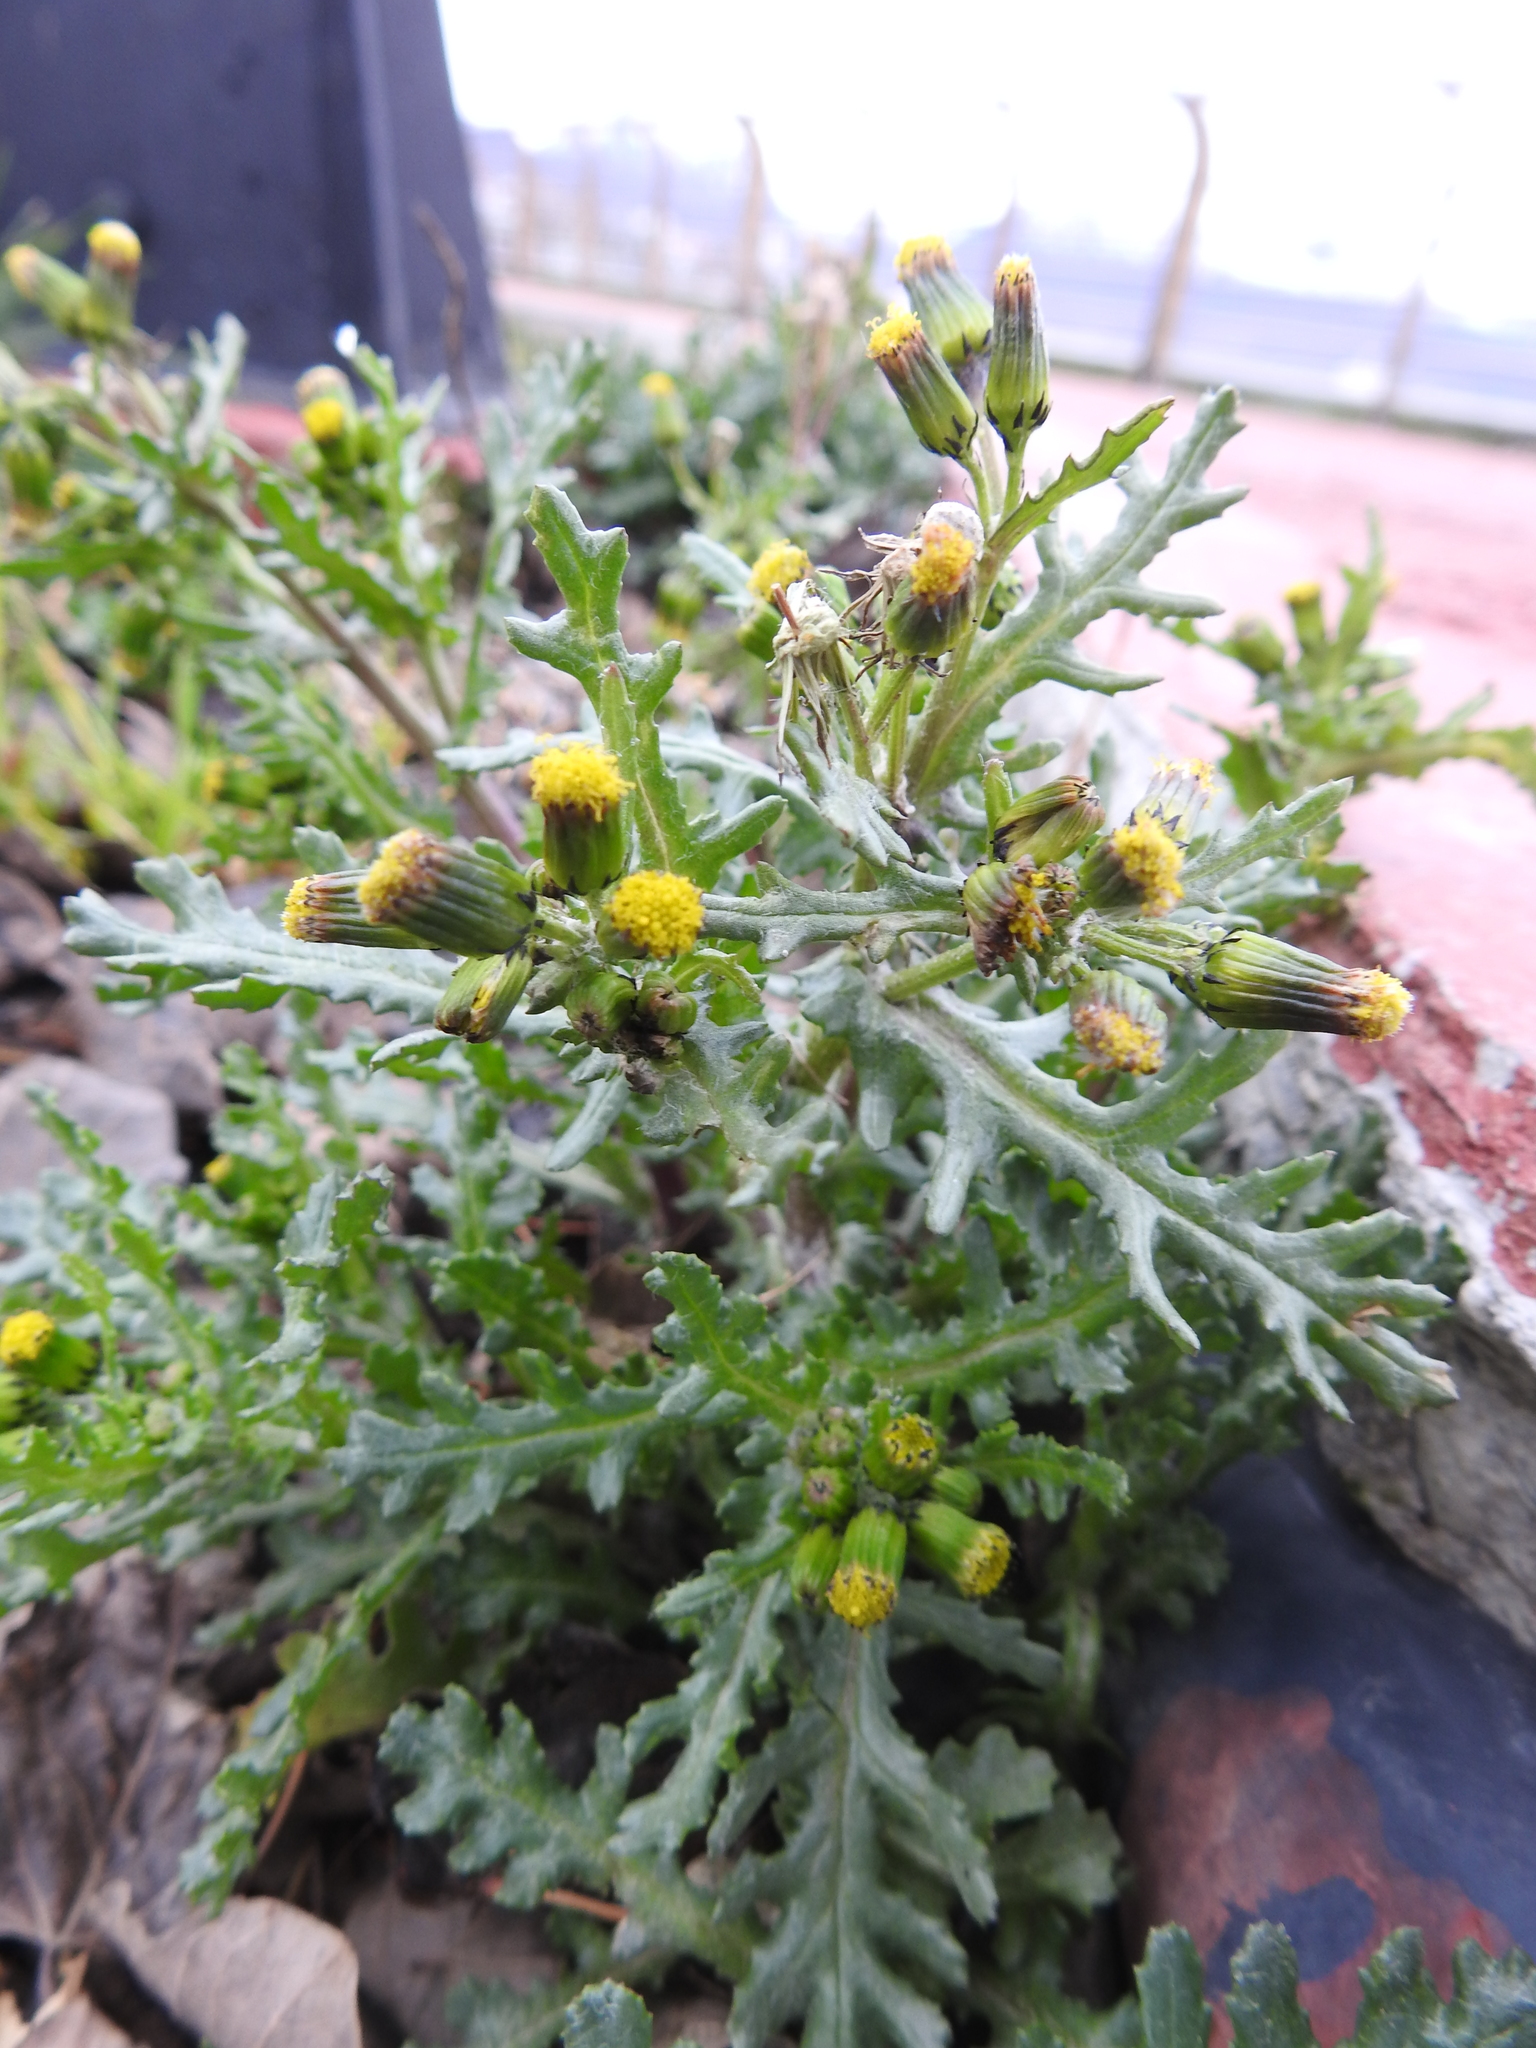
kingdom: Plantae
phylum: Tracheophyta
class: Magnoliopsida
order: Asterales
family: Asteraceae
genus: Senecio
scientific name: Senecio vulgaris
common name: Old-man-in-the-spring
